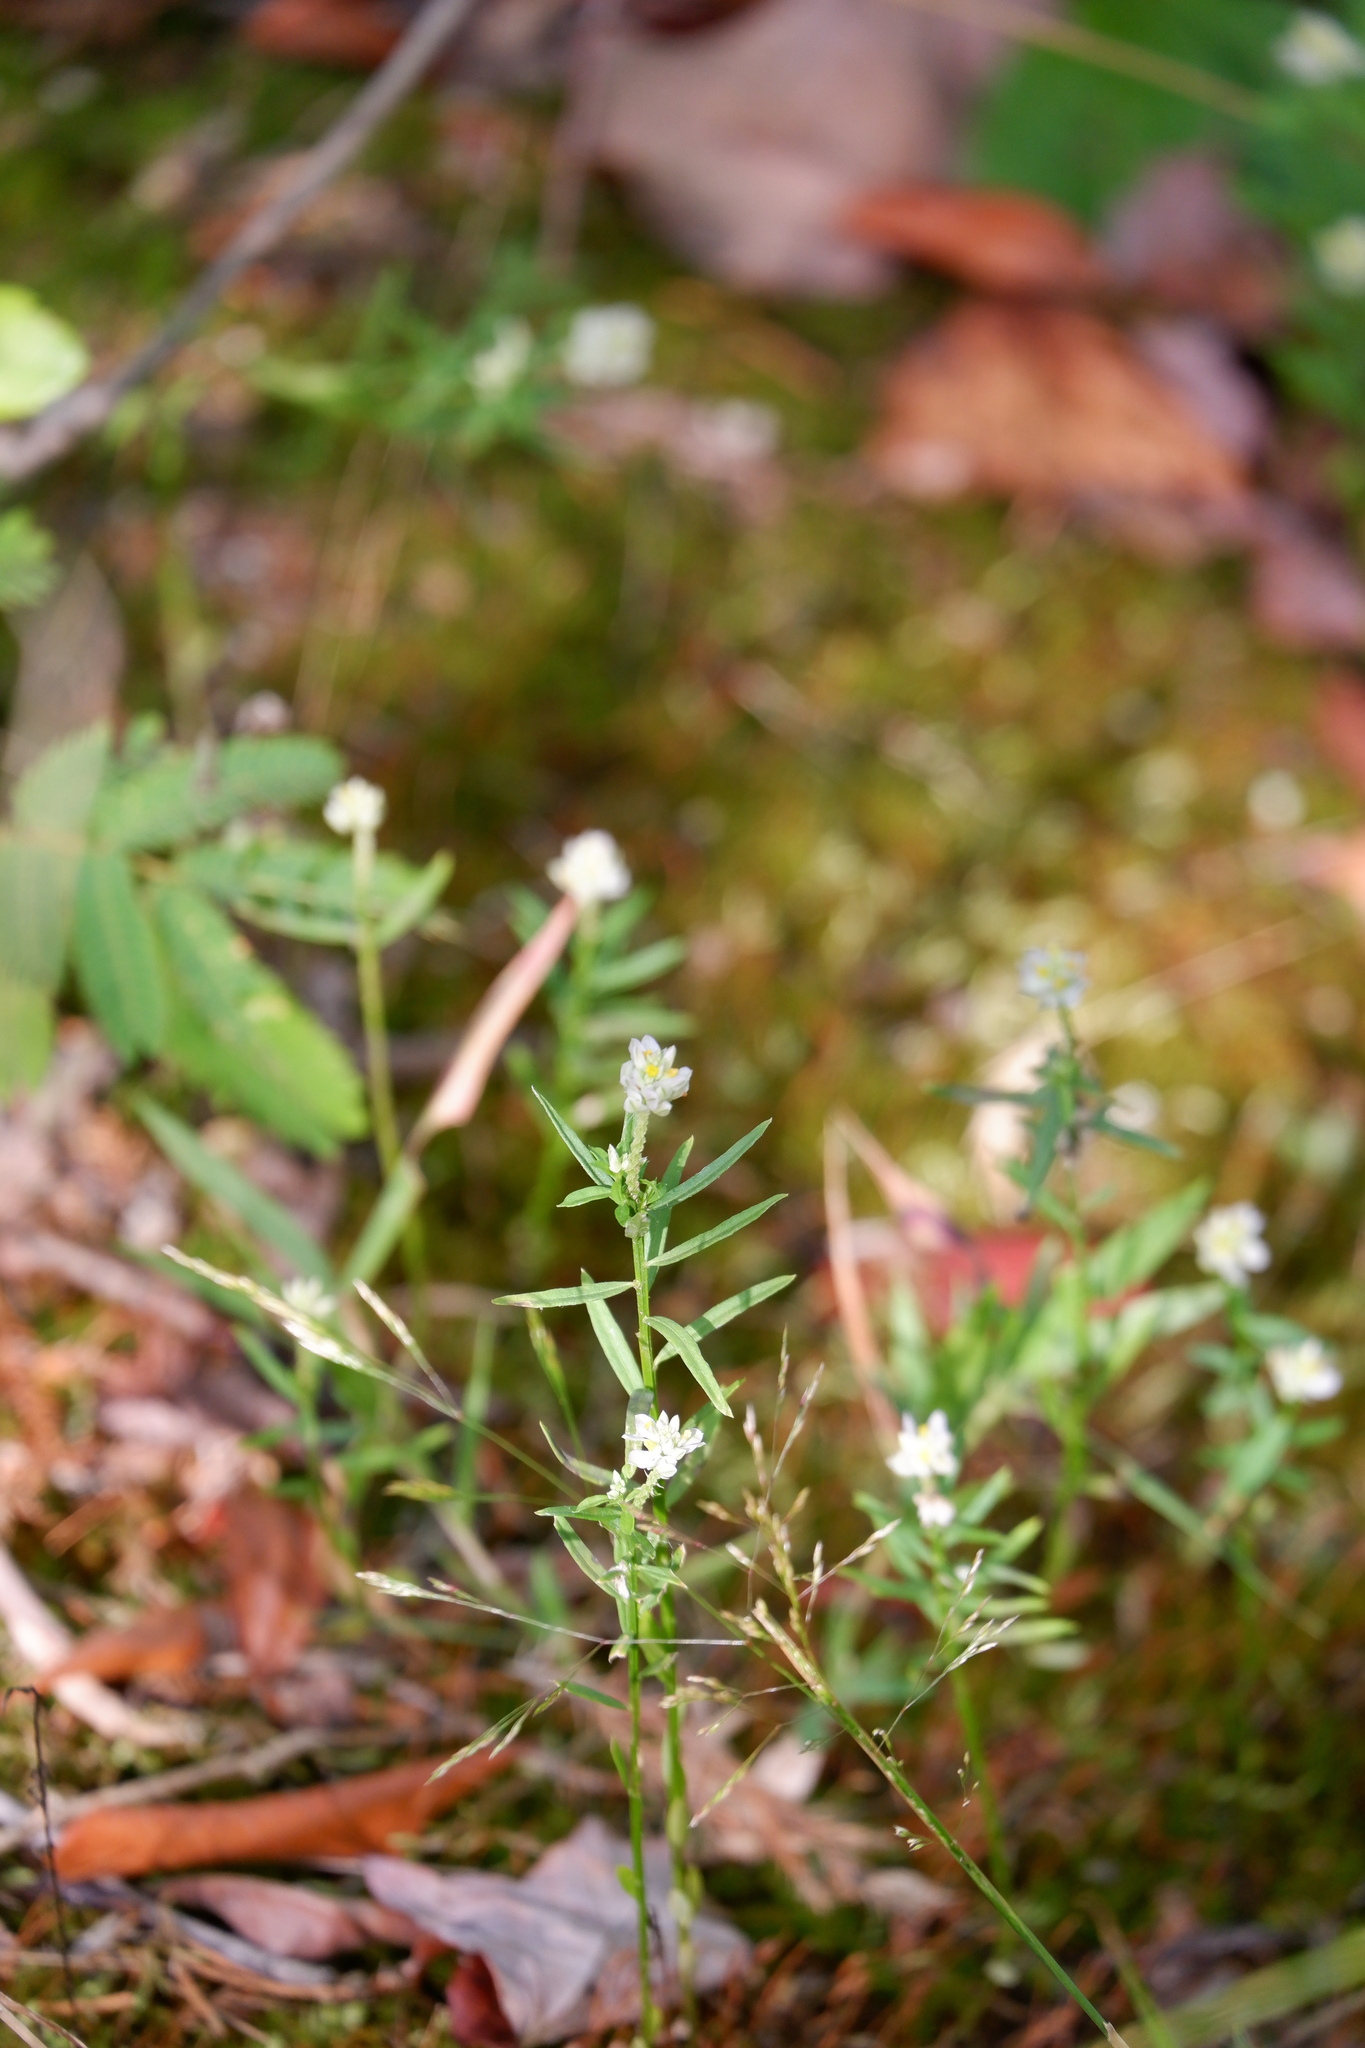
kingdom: Plantae
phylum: Tracheophyta
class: Magnoliopsida
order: Fabales
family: Polygalaceae
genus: Polygala
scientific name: Polygala sanguinea
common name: Blood milkwort
